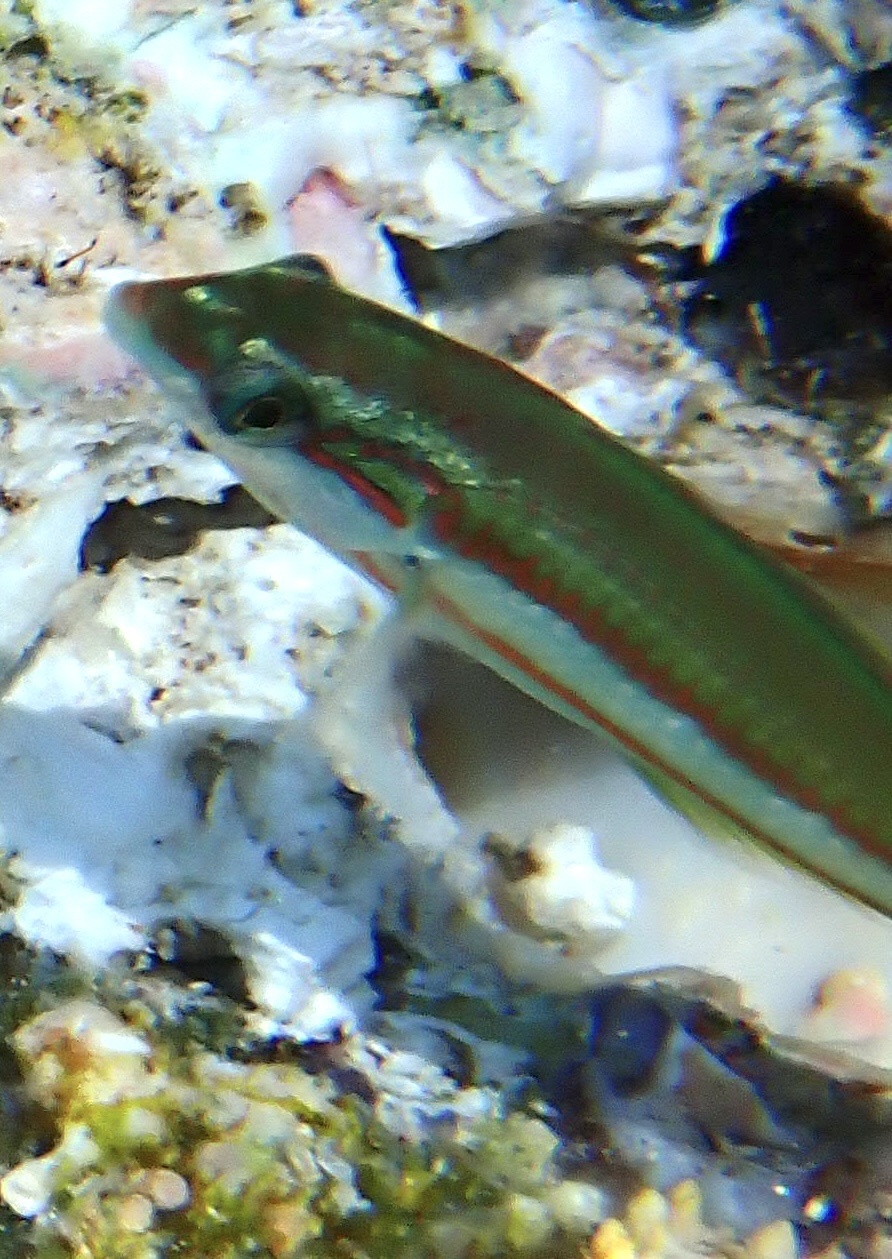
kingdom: Animalia
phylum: Chordata
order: Perciformes
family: Labridae
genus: Thalassoma
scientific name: Thalassoma rueppellii
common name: Klunzinger's wrasse
